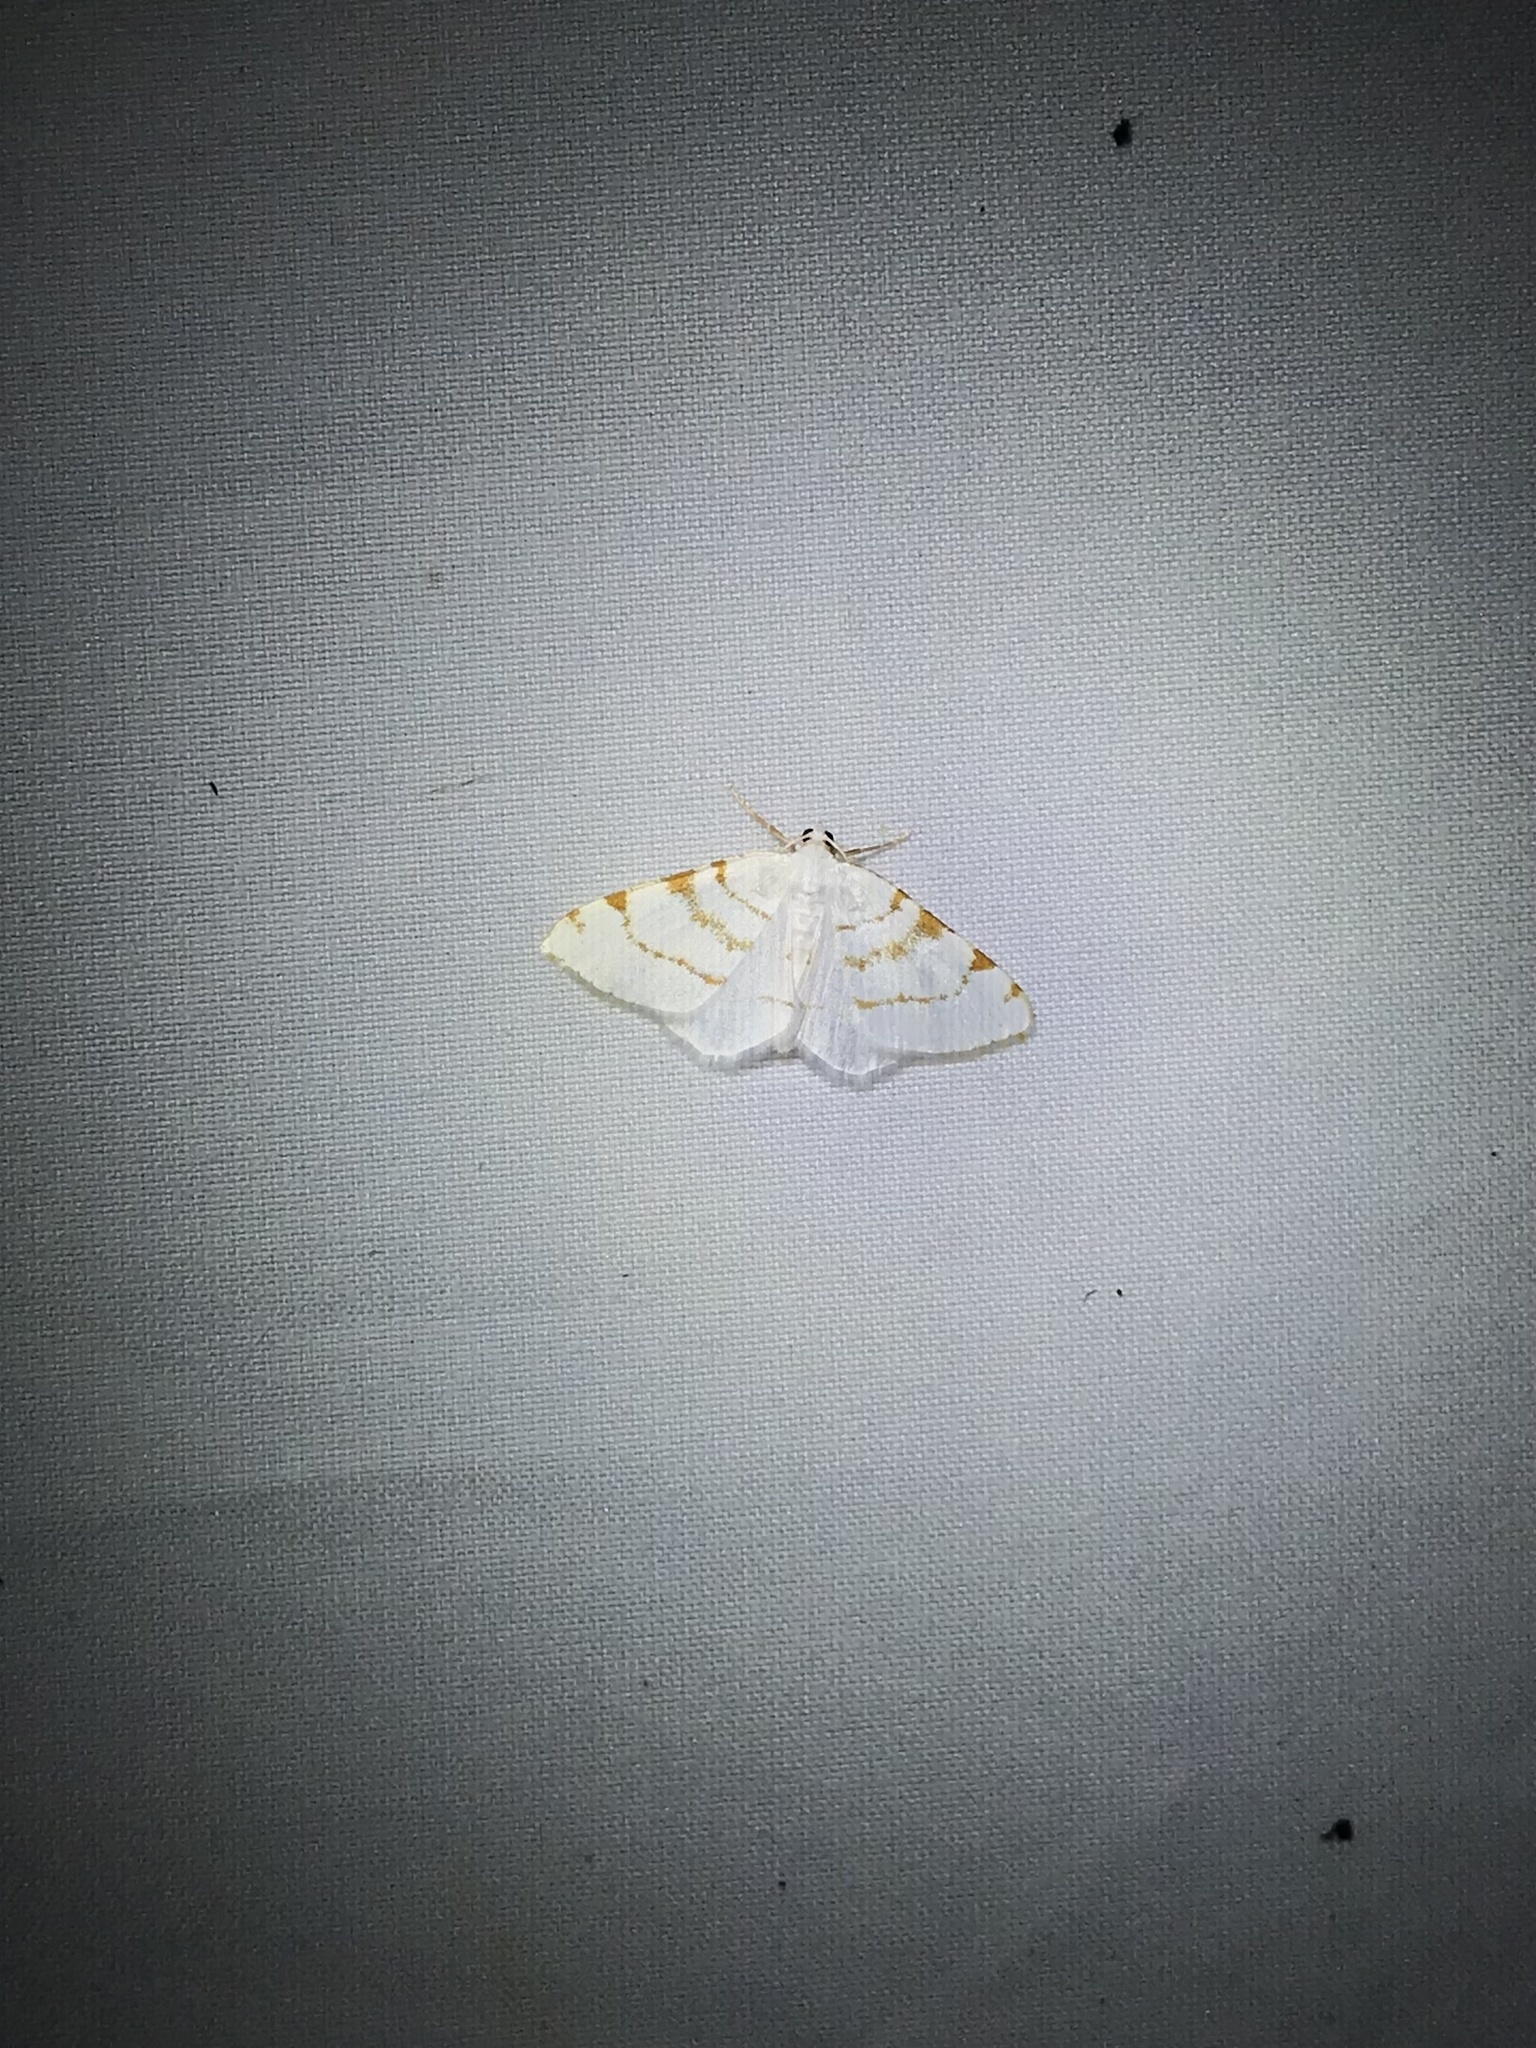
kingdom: Animalia
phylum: Arthropoda
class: Insecta
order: Lepidoptera
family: Geometridae
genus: Macaria
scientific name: Macaria pustularia
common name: Lesser maple spanworm moth
